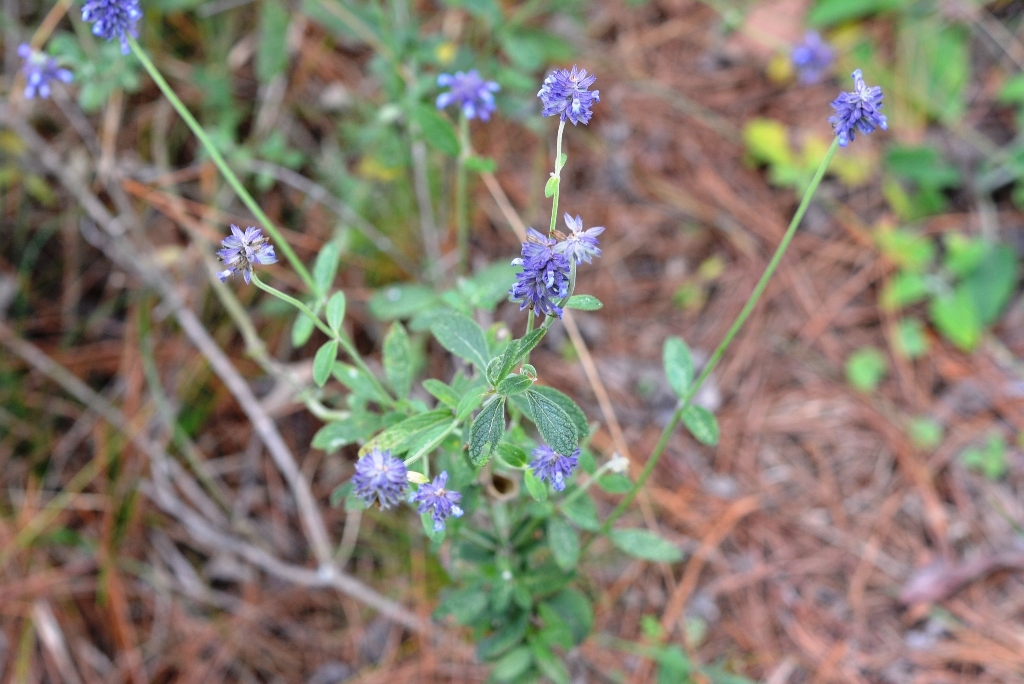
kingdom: Plantae
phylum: Tracheophyta
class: Magnoliopsida
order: Lamiales
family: Lamiaceae
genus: Salvia
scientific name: Salvia lavanduloides
